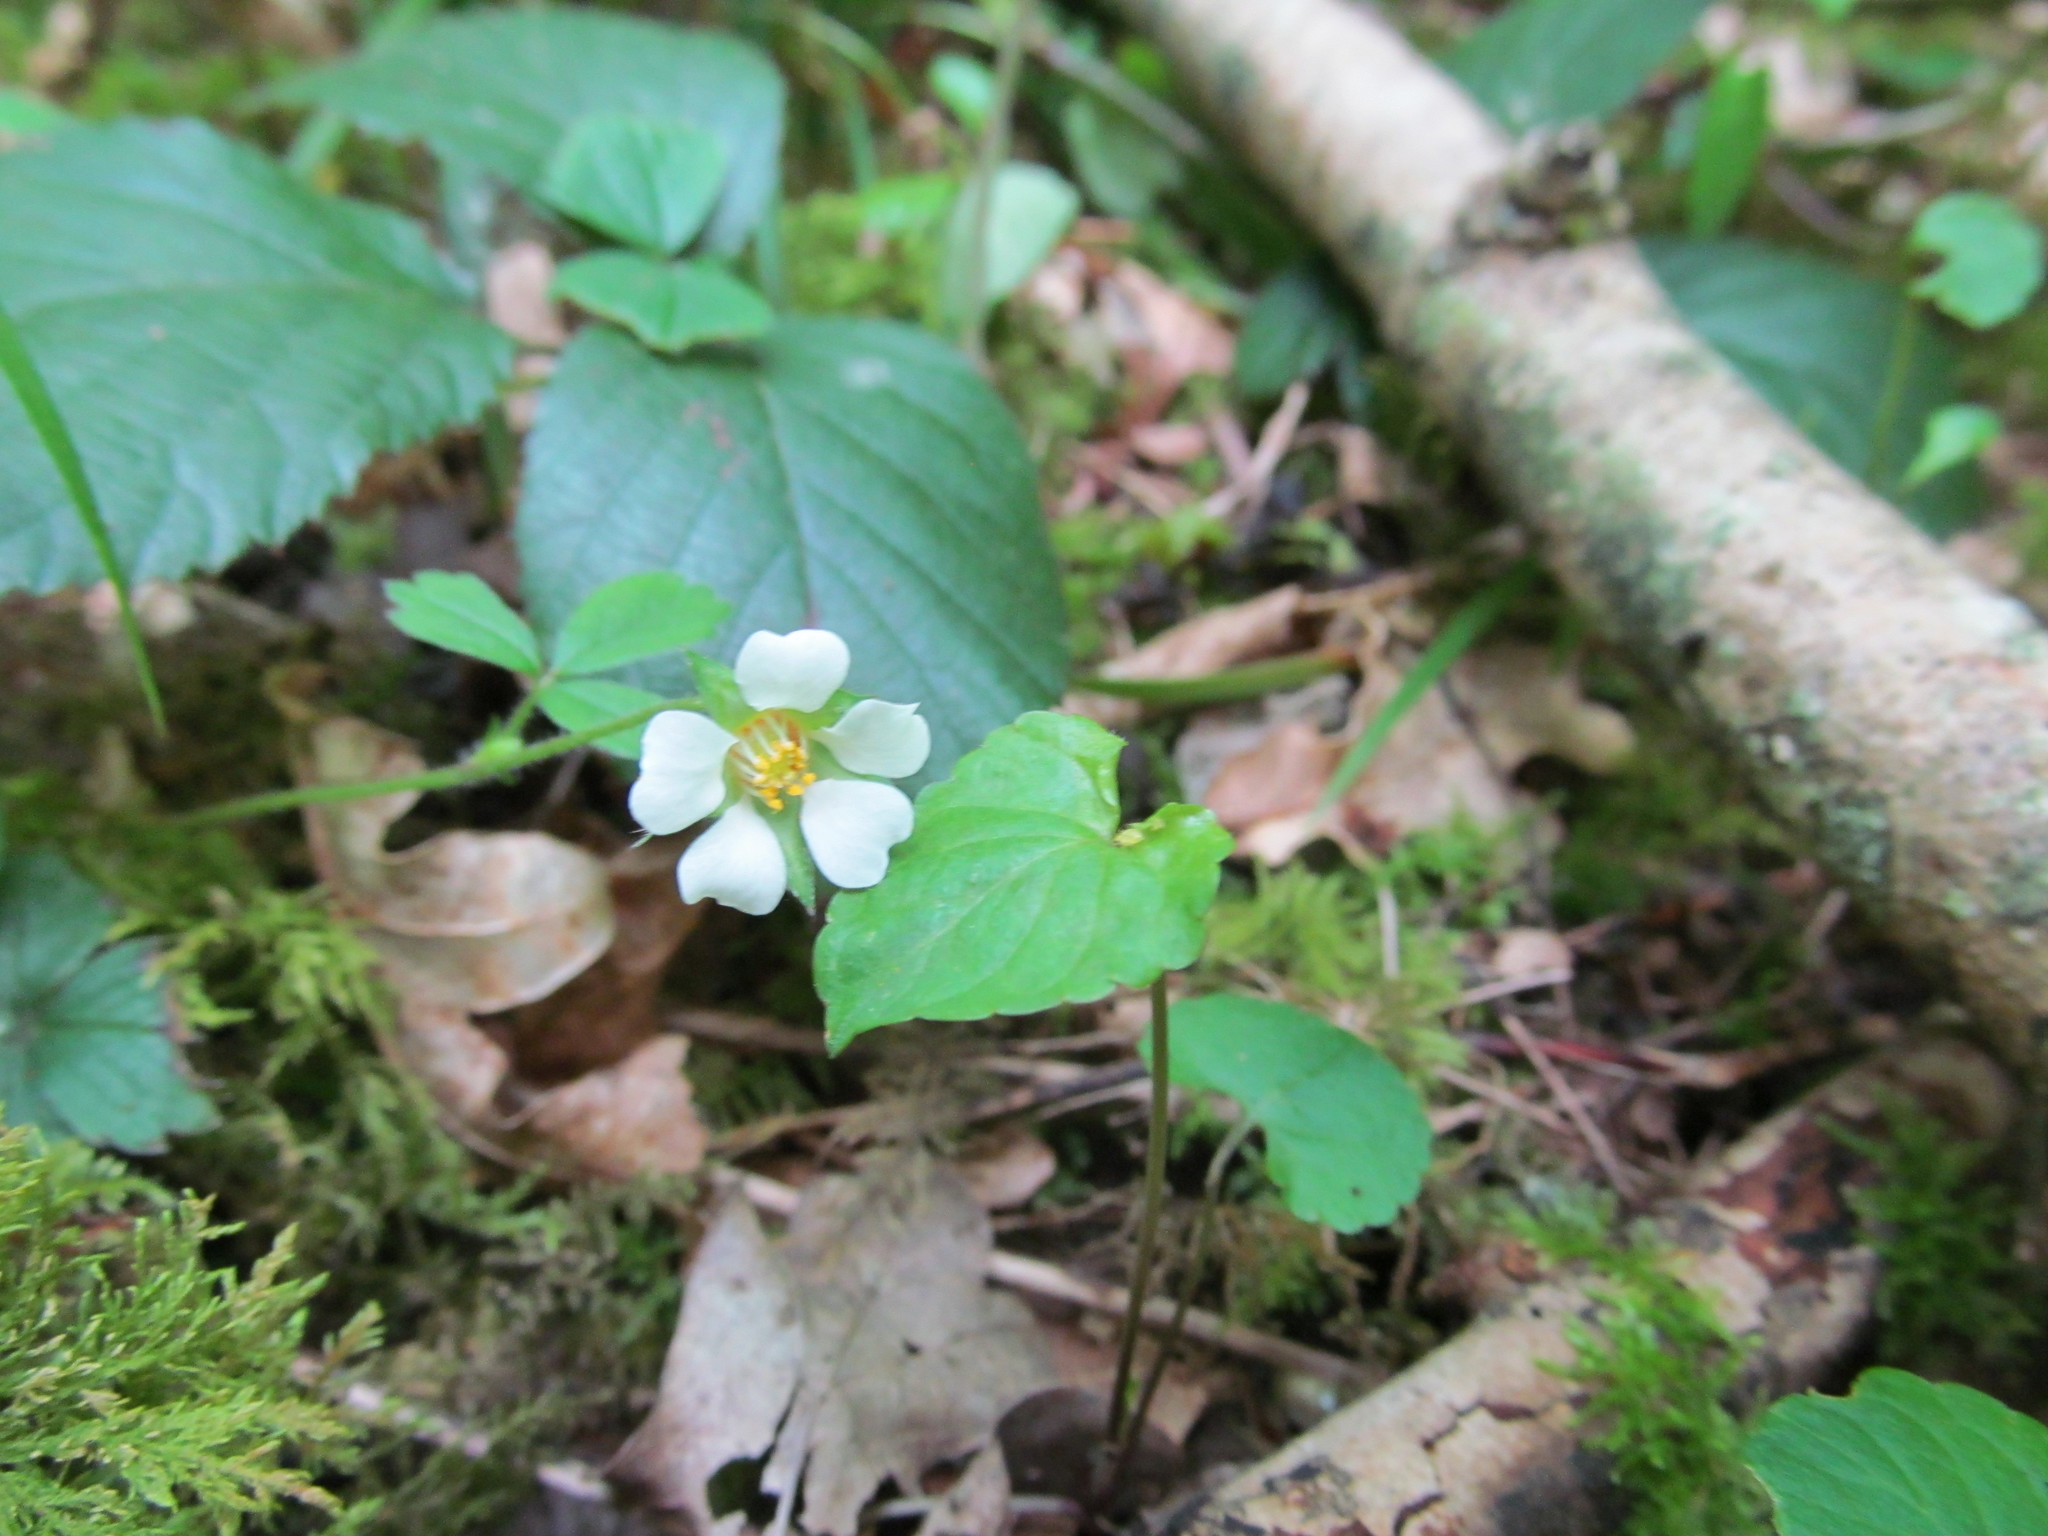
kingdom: Plantae
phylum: Tracheophyta
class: Magnoliopsida
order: Rosales
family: Rosaceae
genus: Potentilla
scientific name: Potentilla sterilis
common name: Barren strawberry
